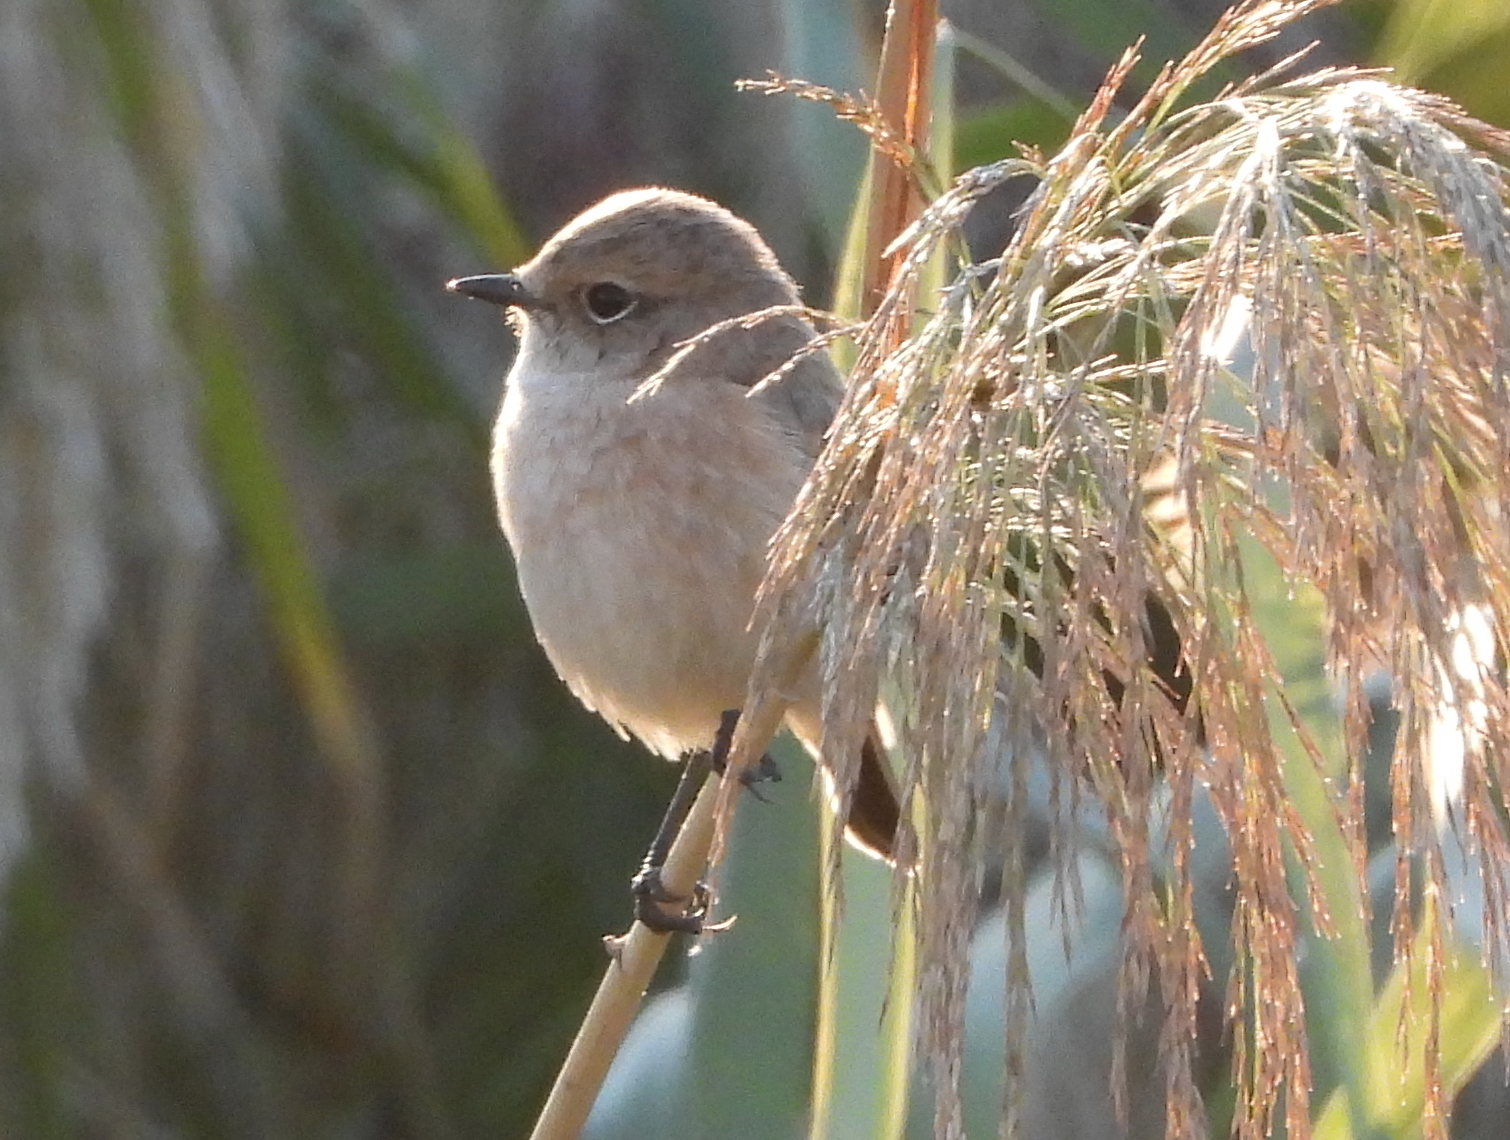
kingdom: Animalia
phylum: Chordata
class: Aves
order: Passeriformes
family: Muscicapidae
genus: Saxicola
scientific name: Saxicola maurus
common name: Siberian stonechat
